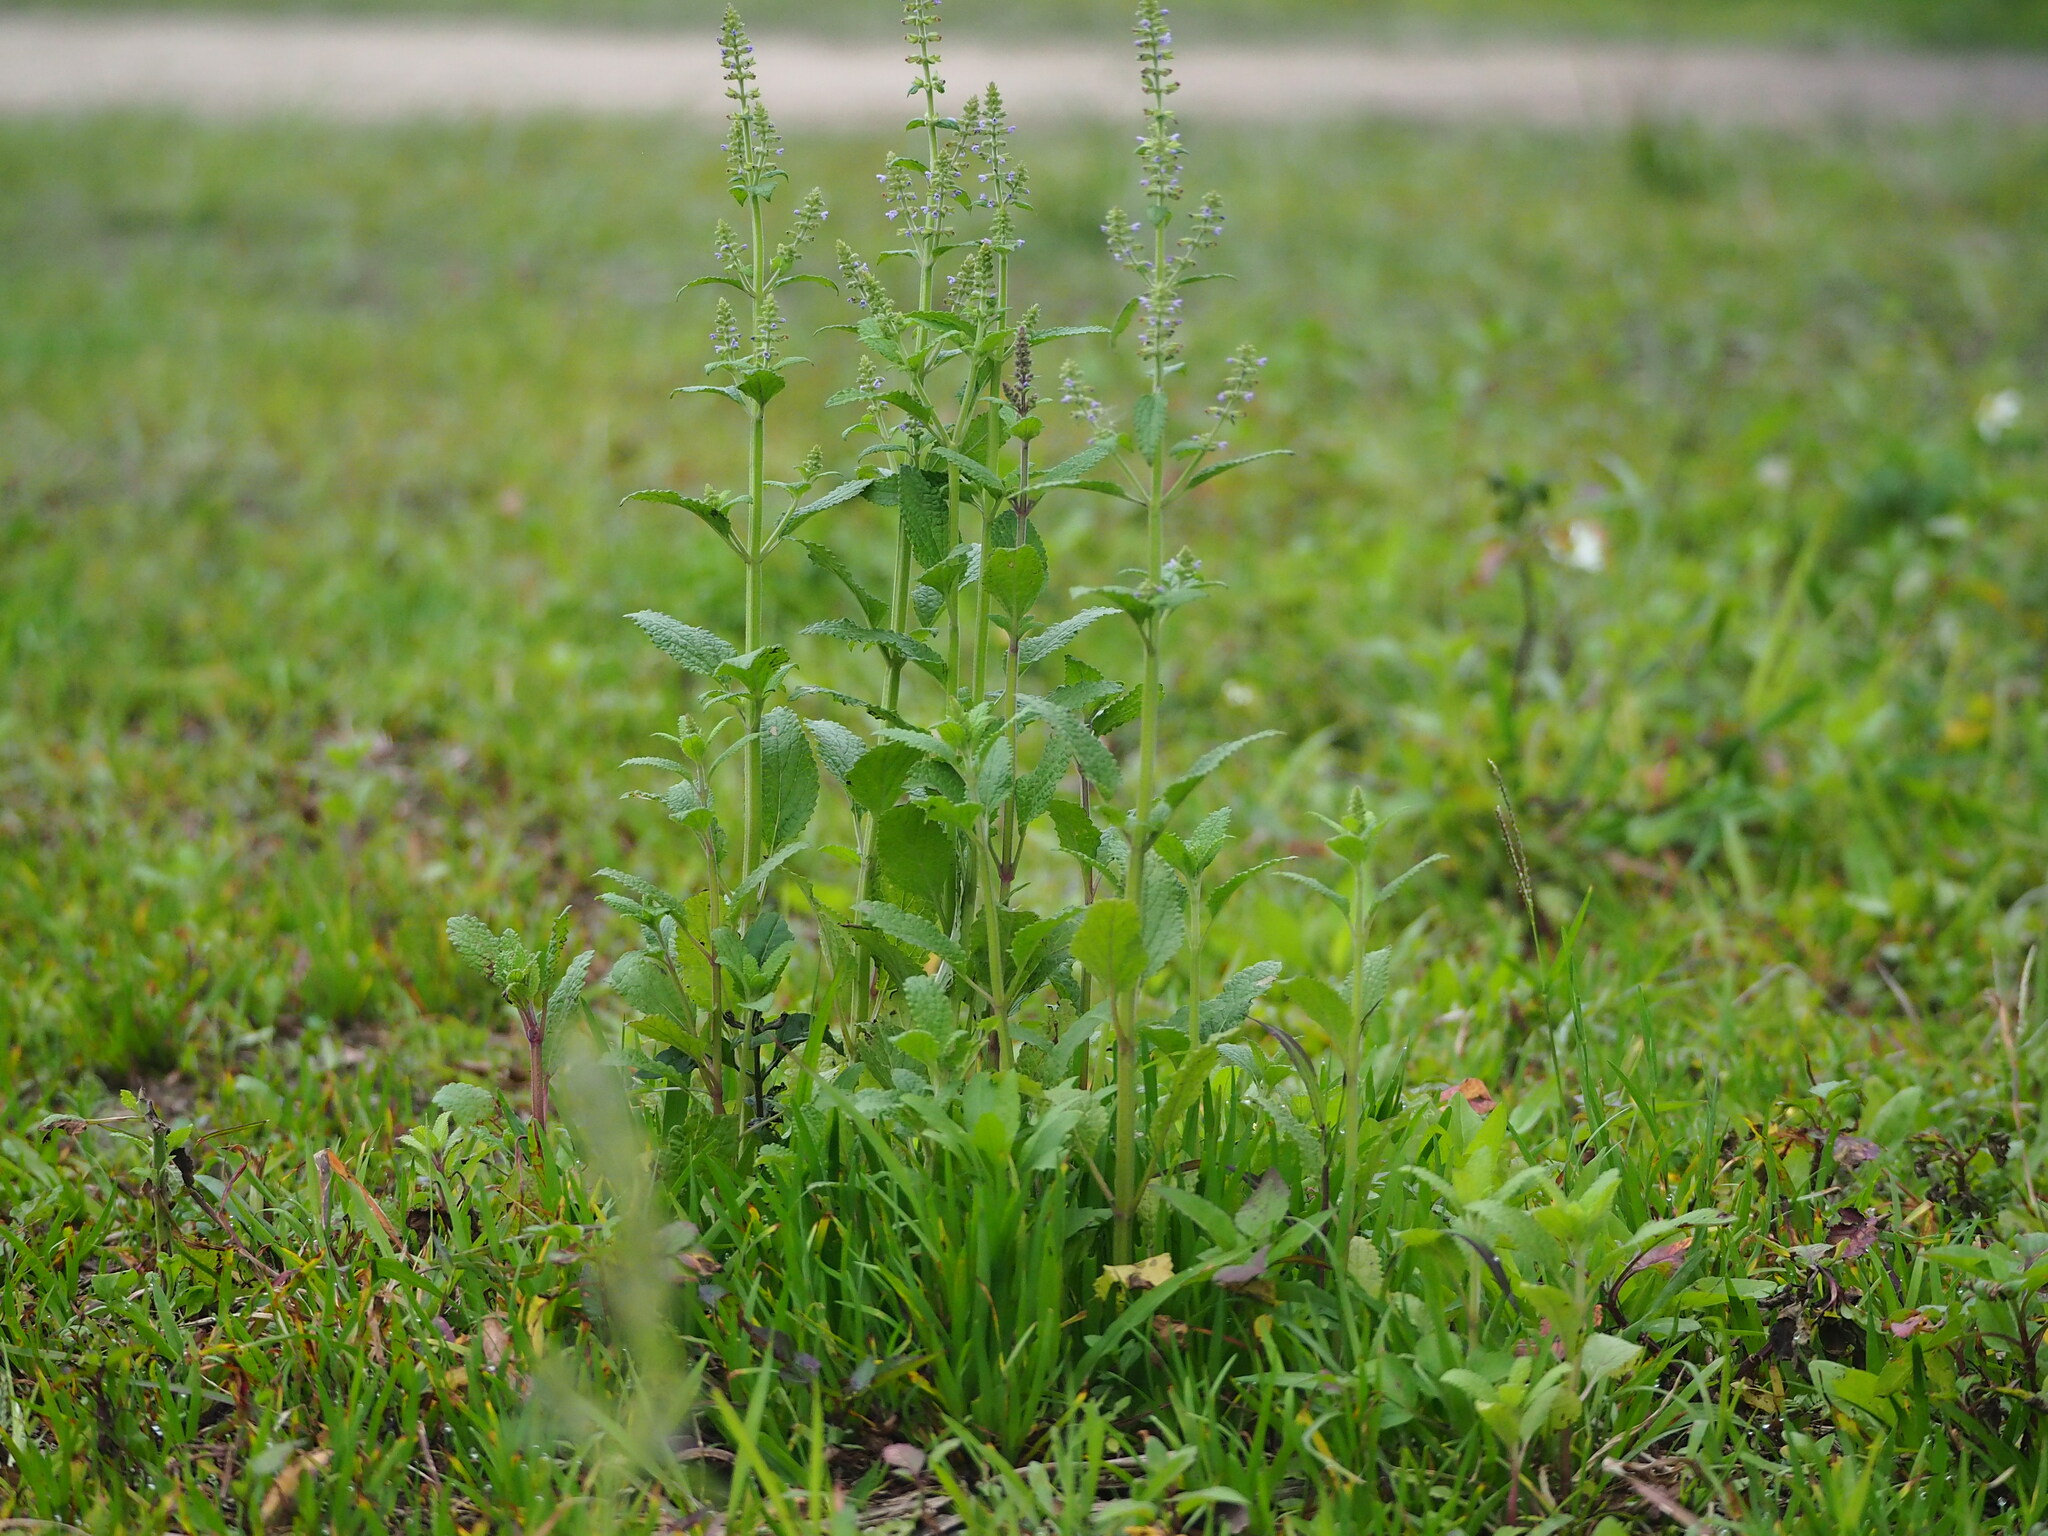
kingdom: Plantae
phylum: Tracheophyta
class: Magnoliopsida
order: Lamiales
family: Lamiaceae
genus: Salvia
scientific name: Salvia plebeia
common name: Australian sage
